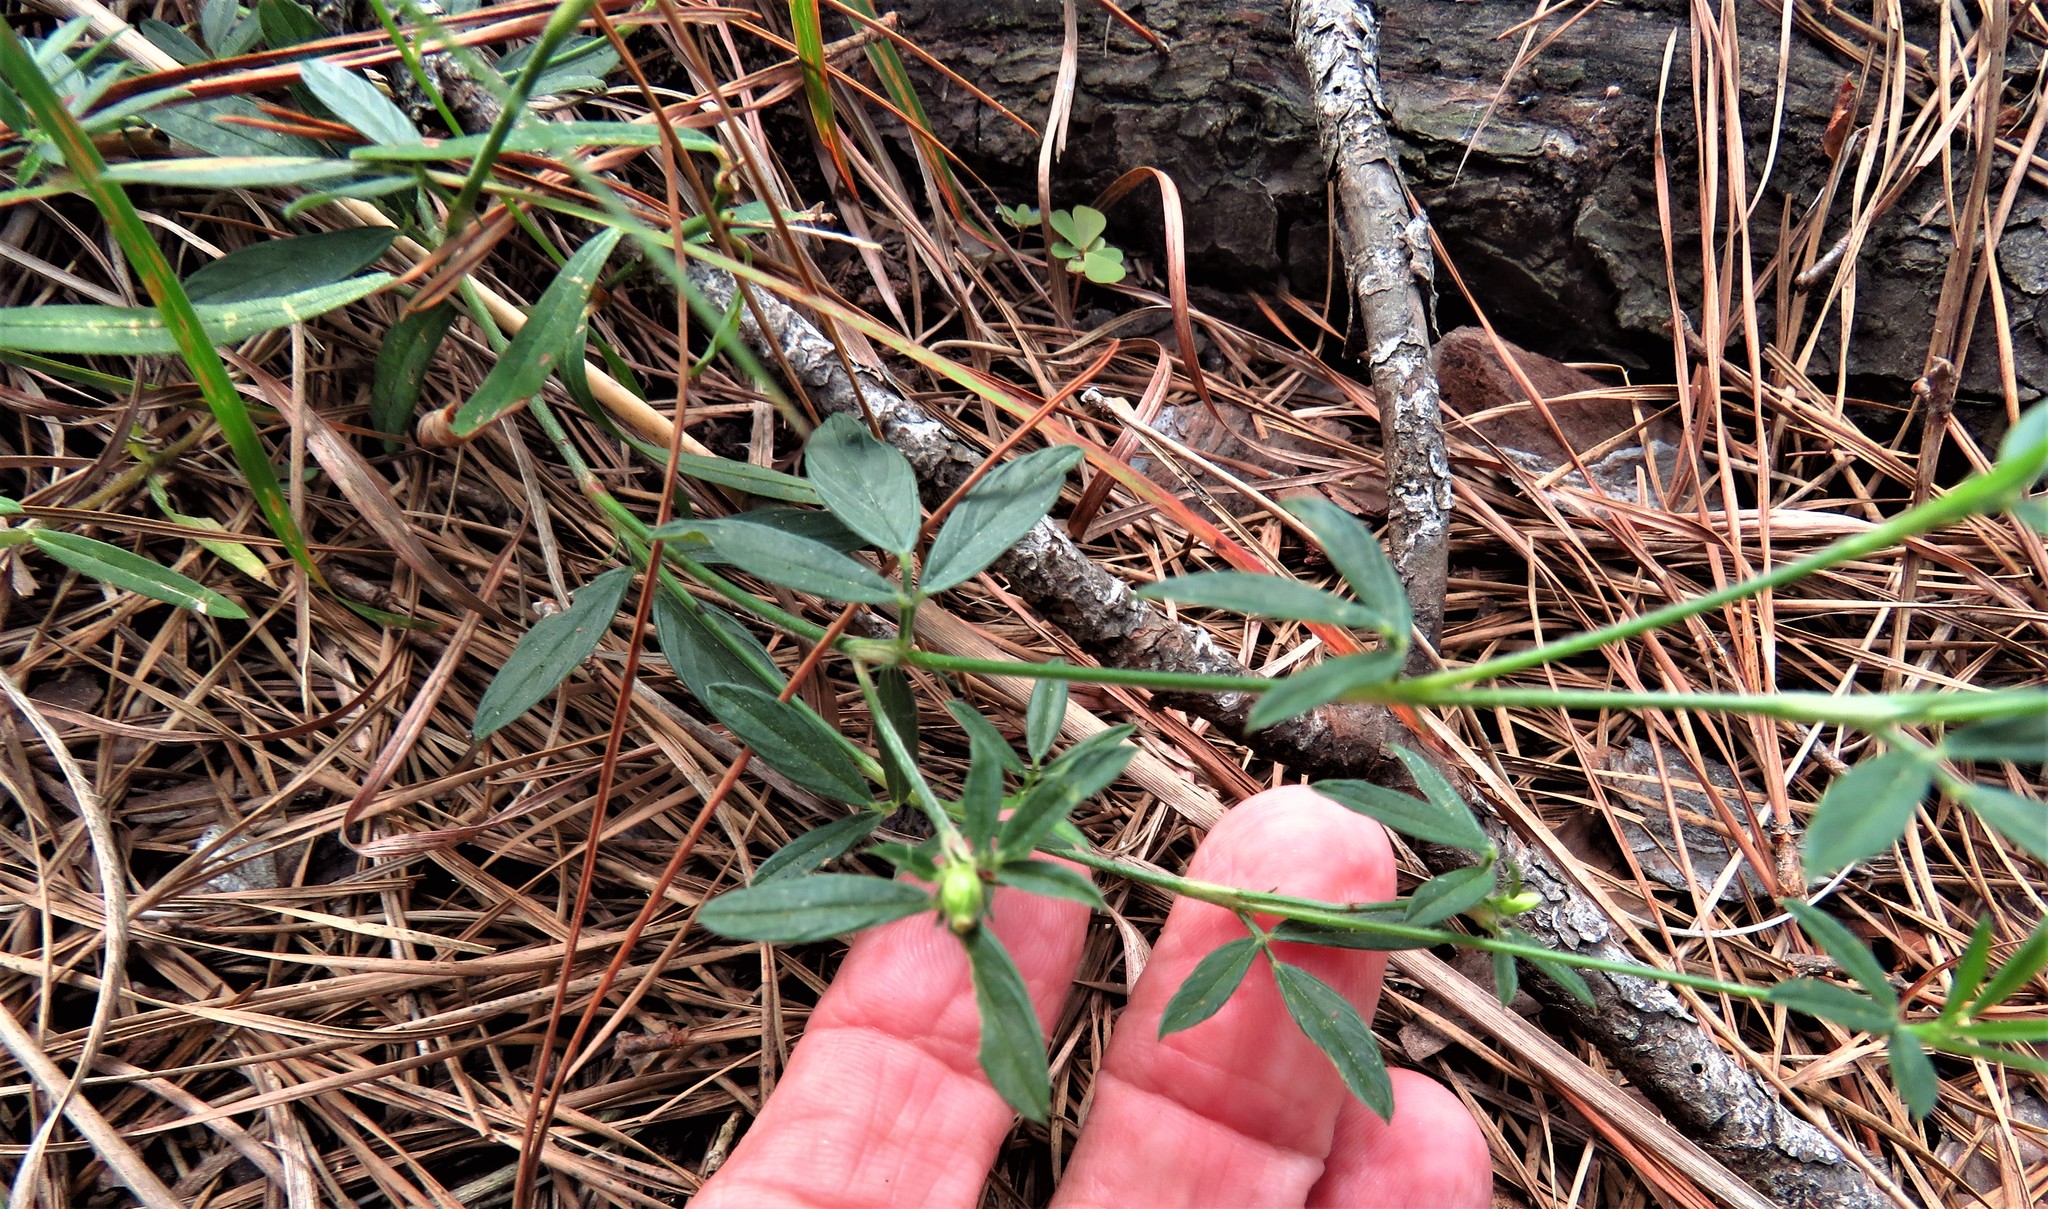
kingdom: Plantae
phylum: Tracheophyta
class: Magnoliopsida
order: Fabales
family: Fabaceae
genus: Stylosanthes
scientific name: Stylosanthes biflora
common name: Two-flower pencil-flower
